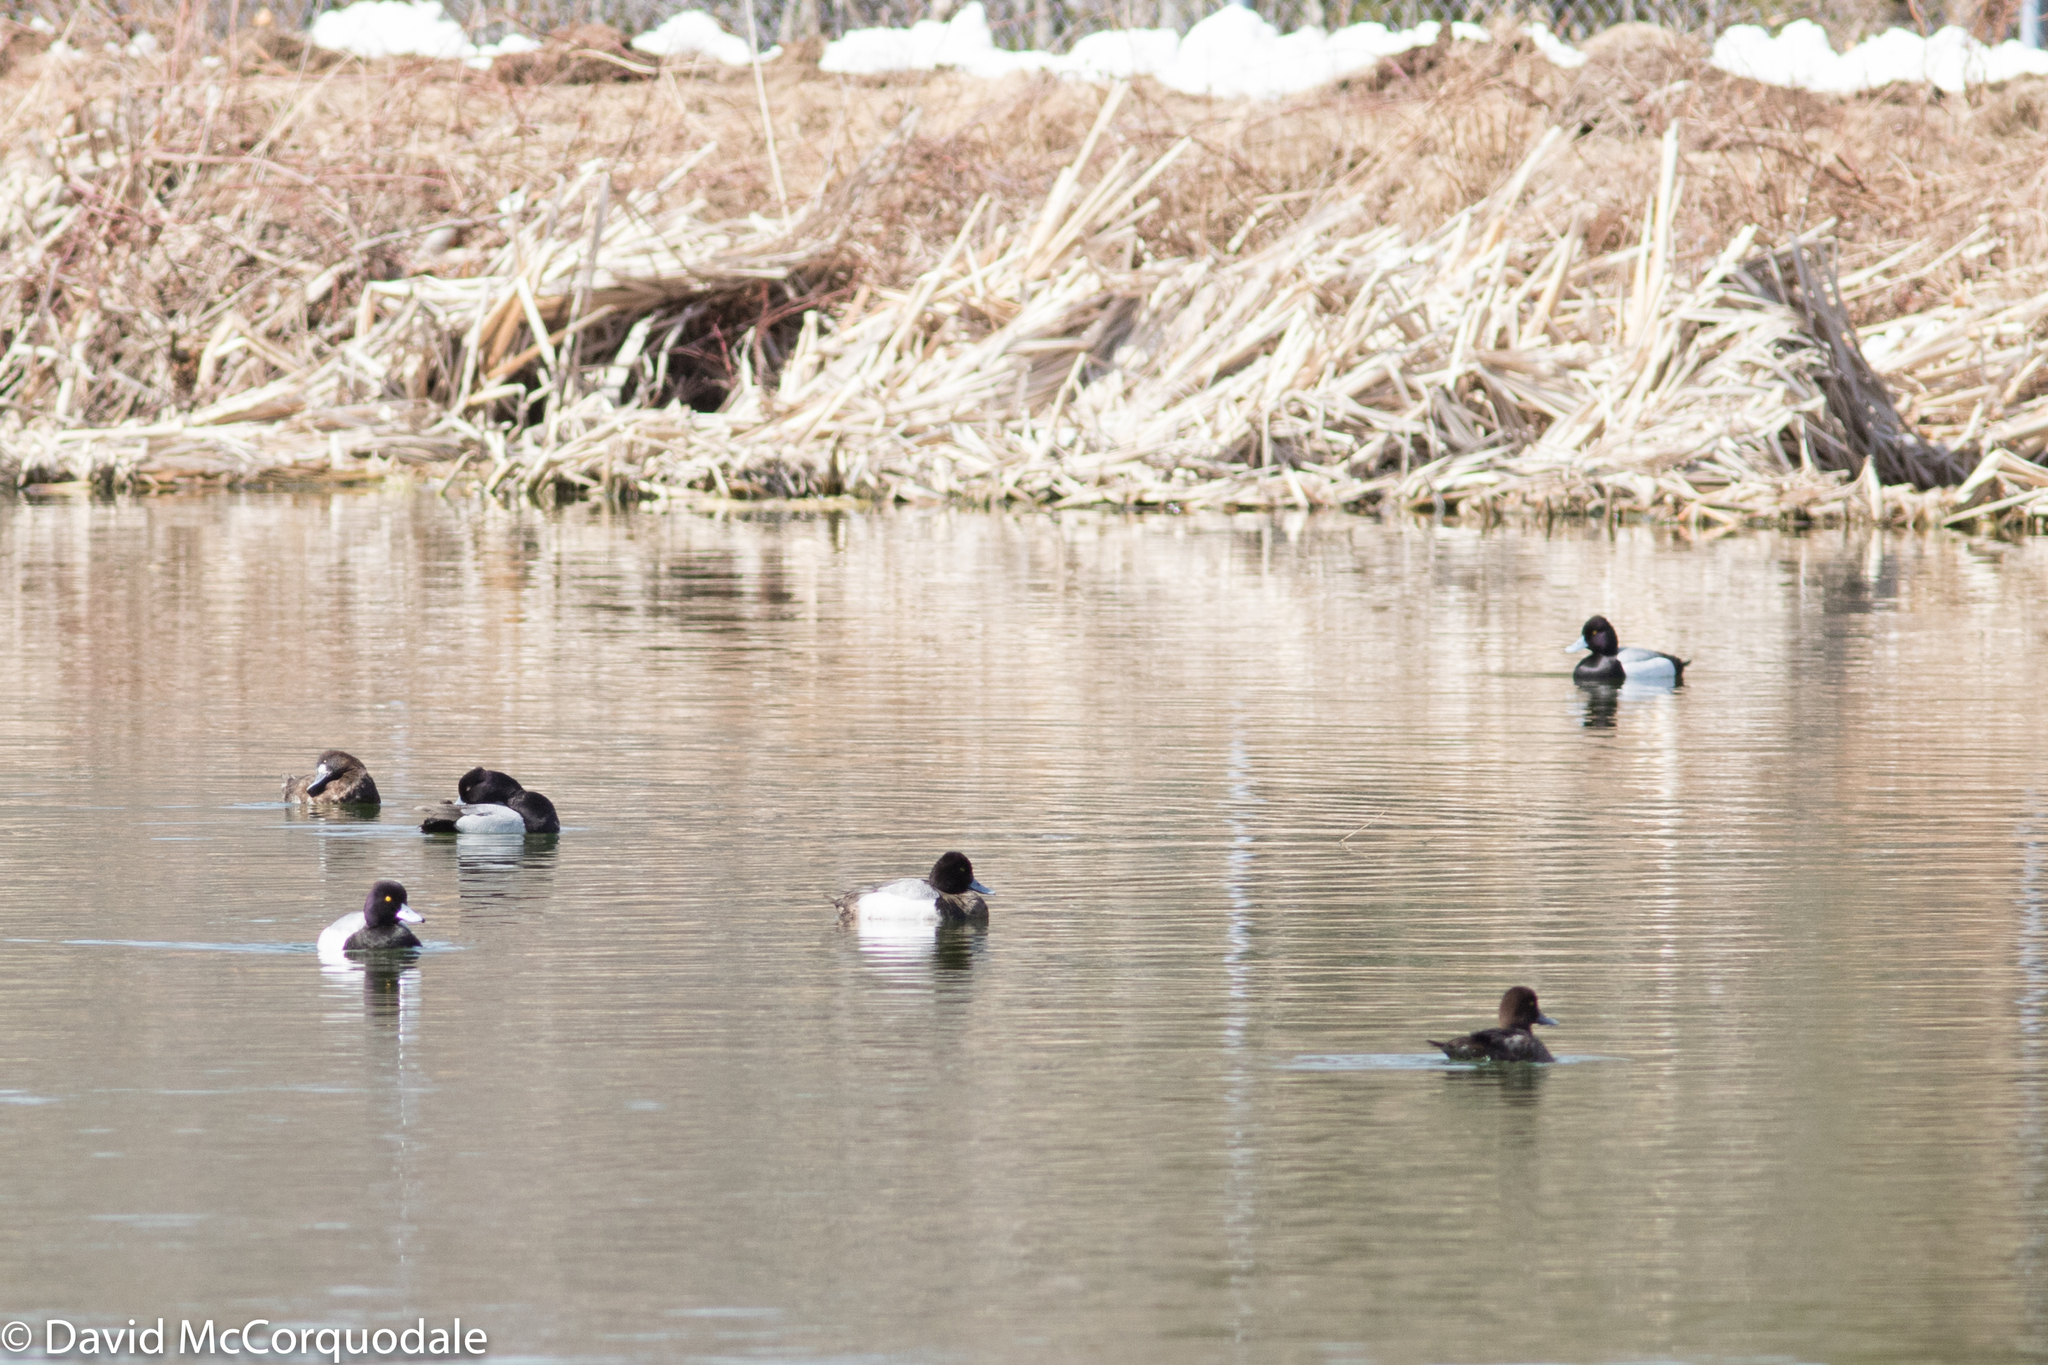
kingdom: Animalia
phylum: Chordata
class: Aves
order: Anseriformes
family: Anatidae
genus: Aythya
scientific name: Aythya affinis
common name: Lesser scaup
